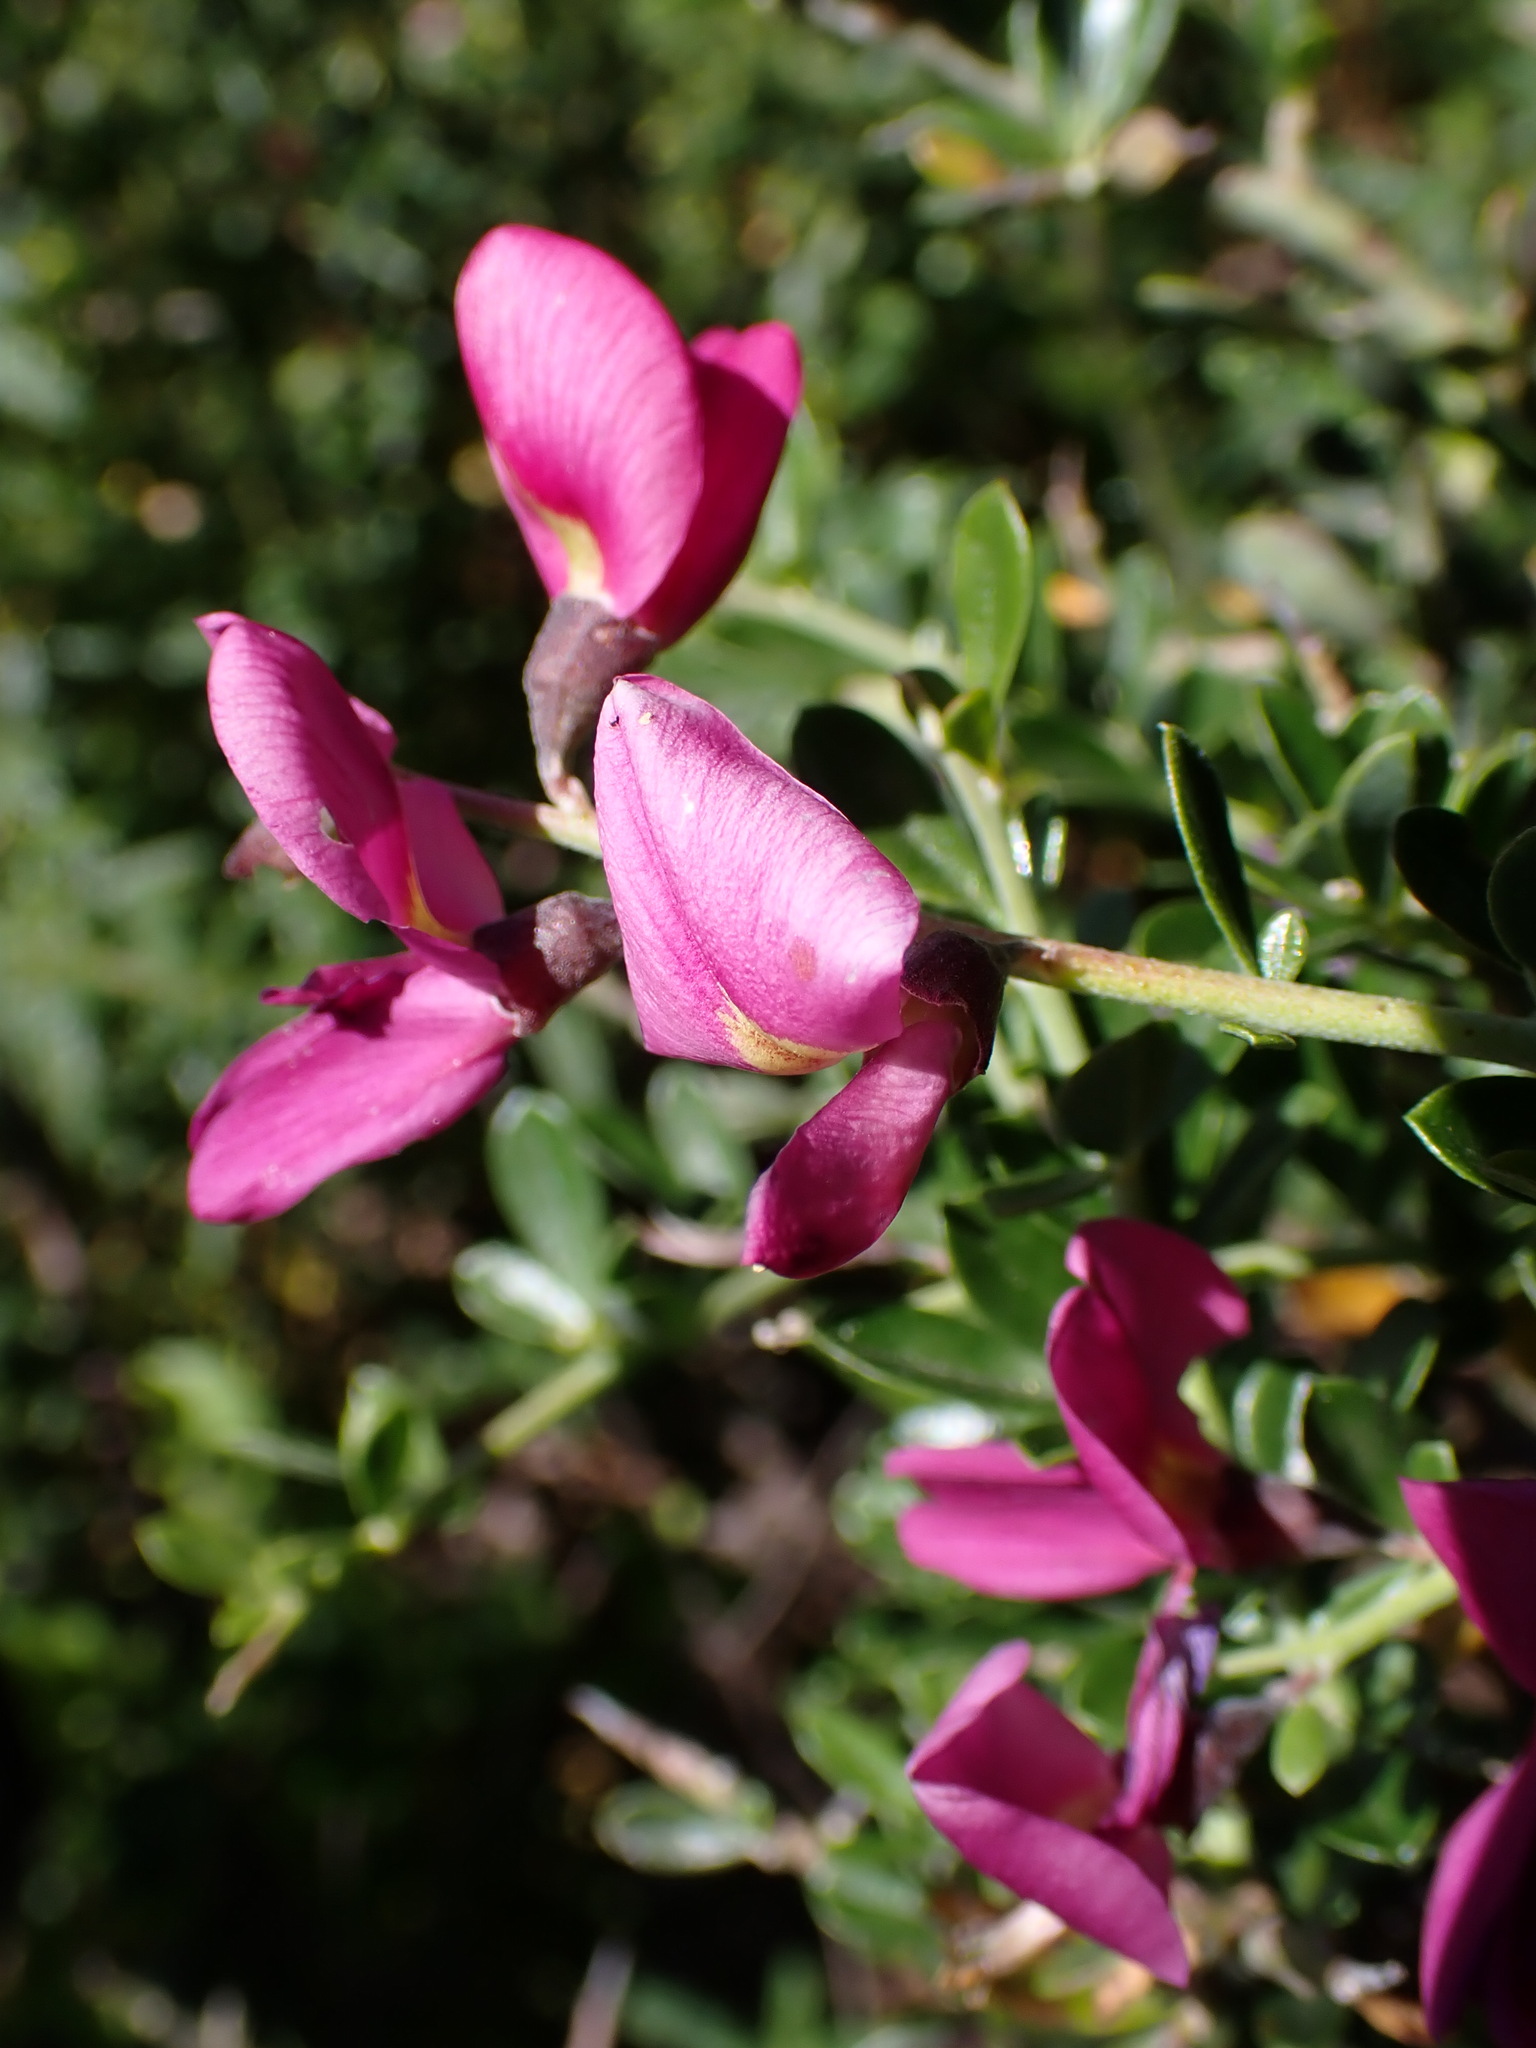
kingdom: Plantae
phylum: Tracheophyta
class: Magnoliopsida
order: Fabales
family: Fabaceae
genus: Pickeringia
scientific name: Pickeringia montana
